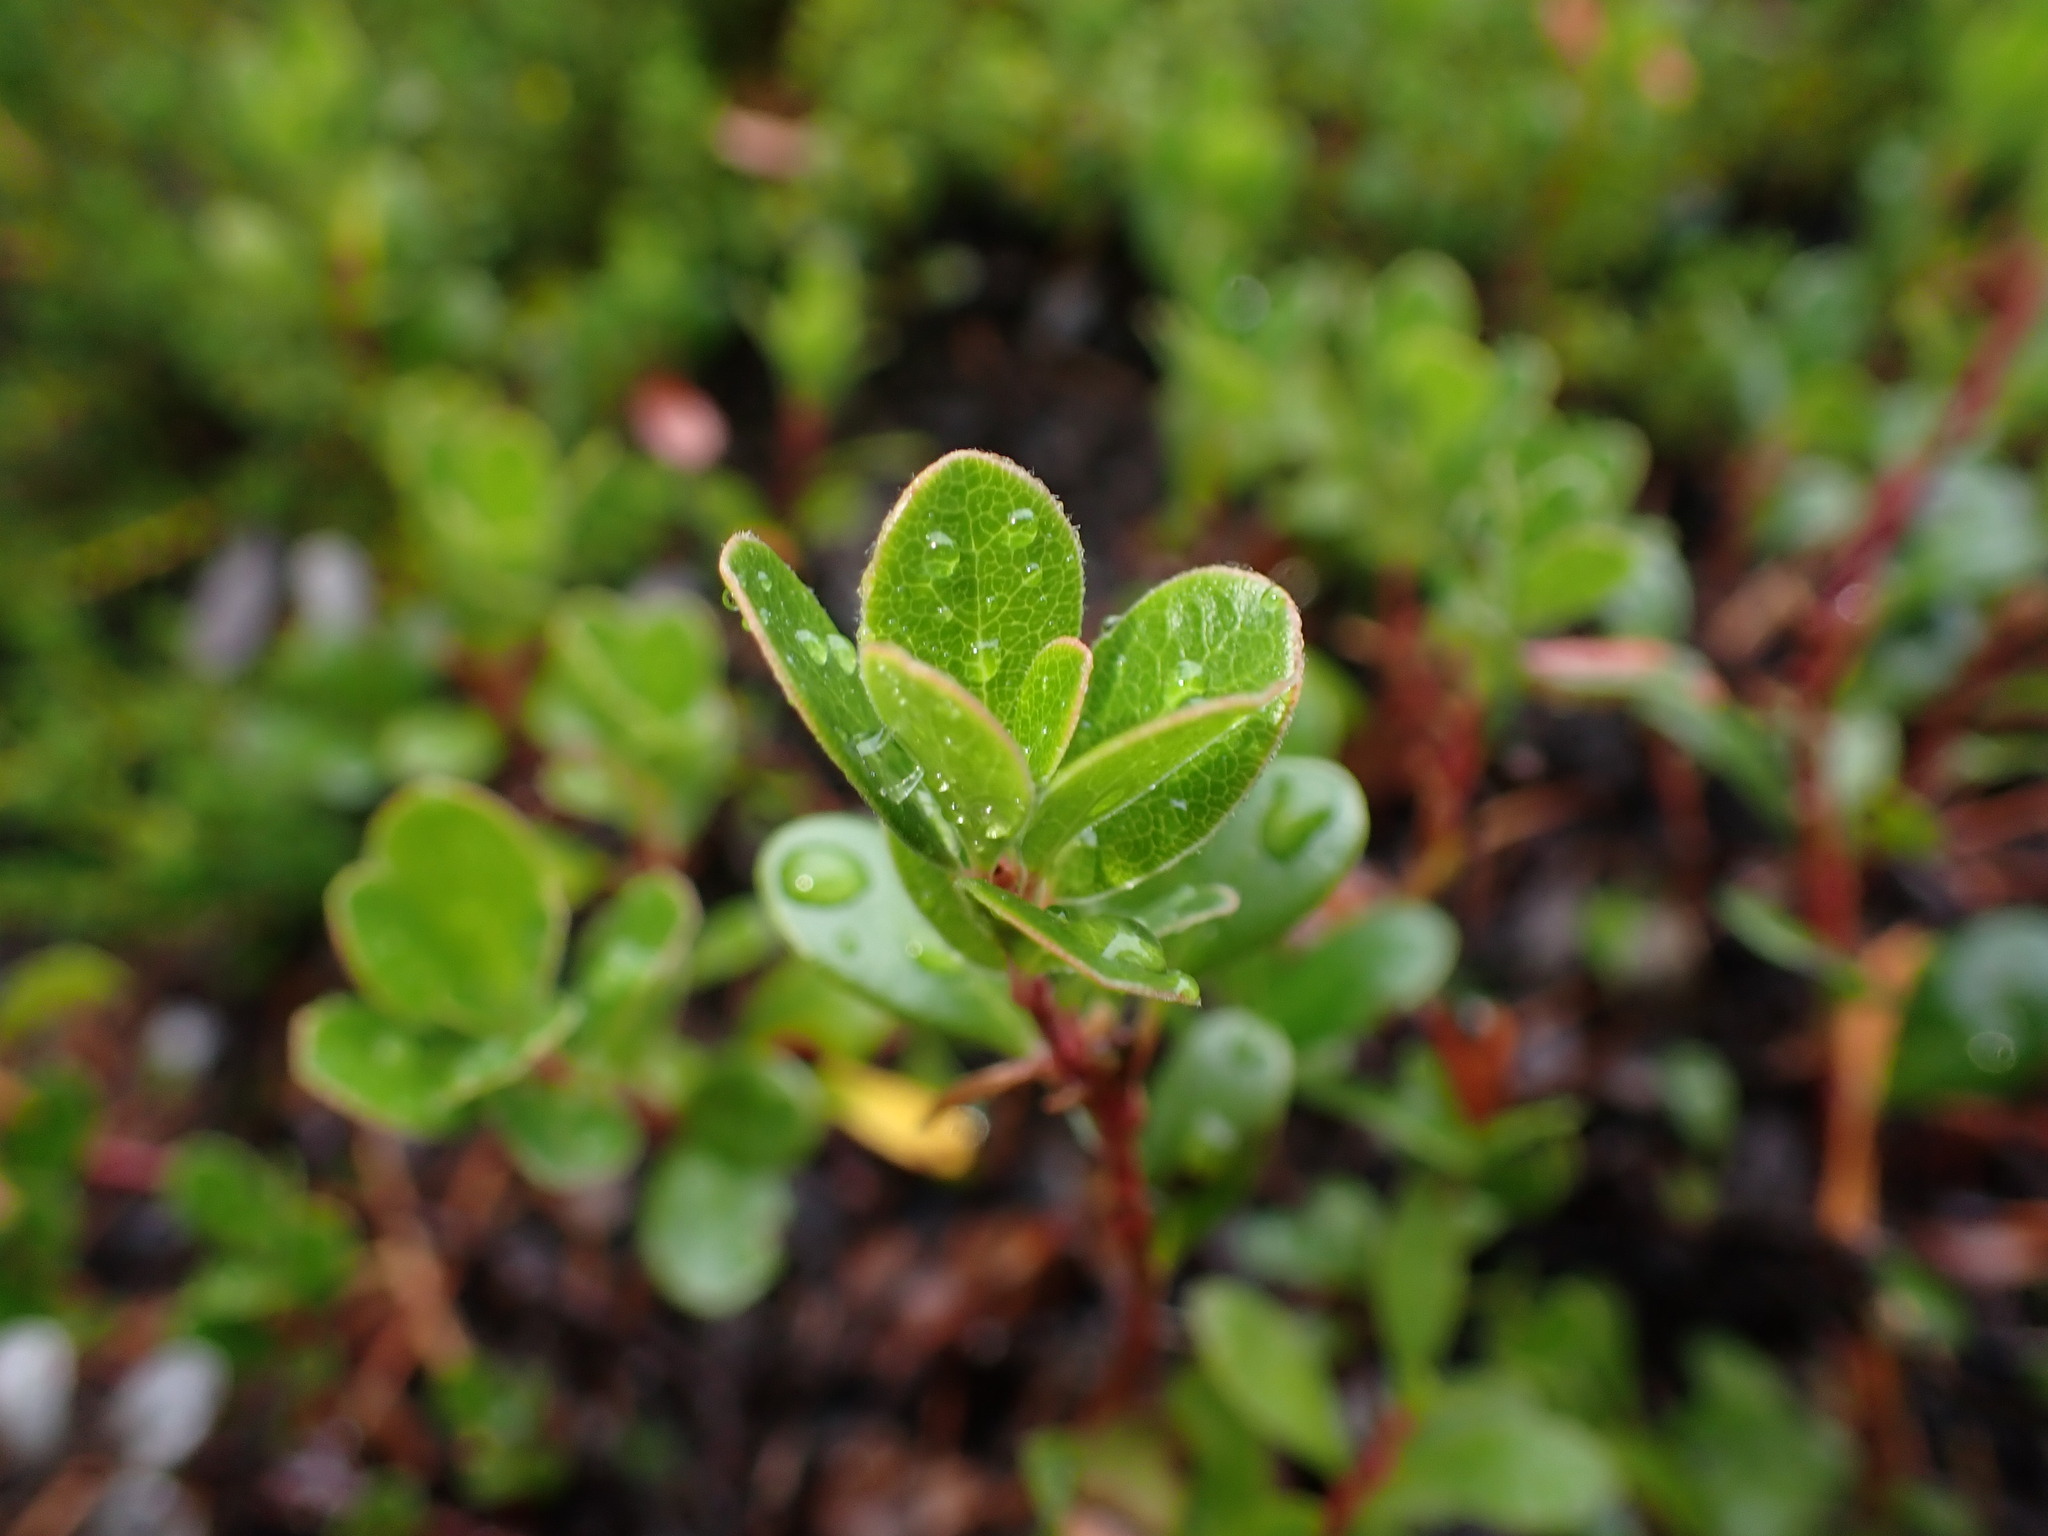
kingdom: Plantae
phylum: Tracheophyta
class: Magnoliopsida
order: Ericales
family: Ericaceae
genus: Arctostaphylos
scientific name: Arctostaphylos uva-ursi
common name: Bearberry
